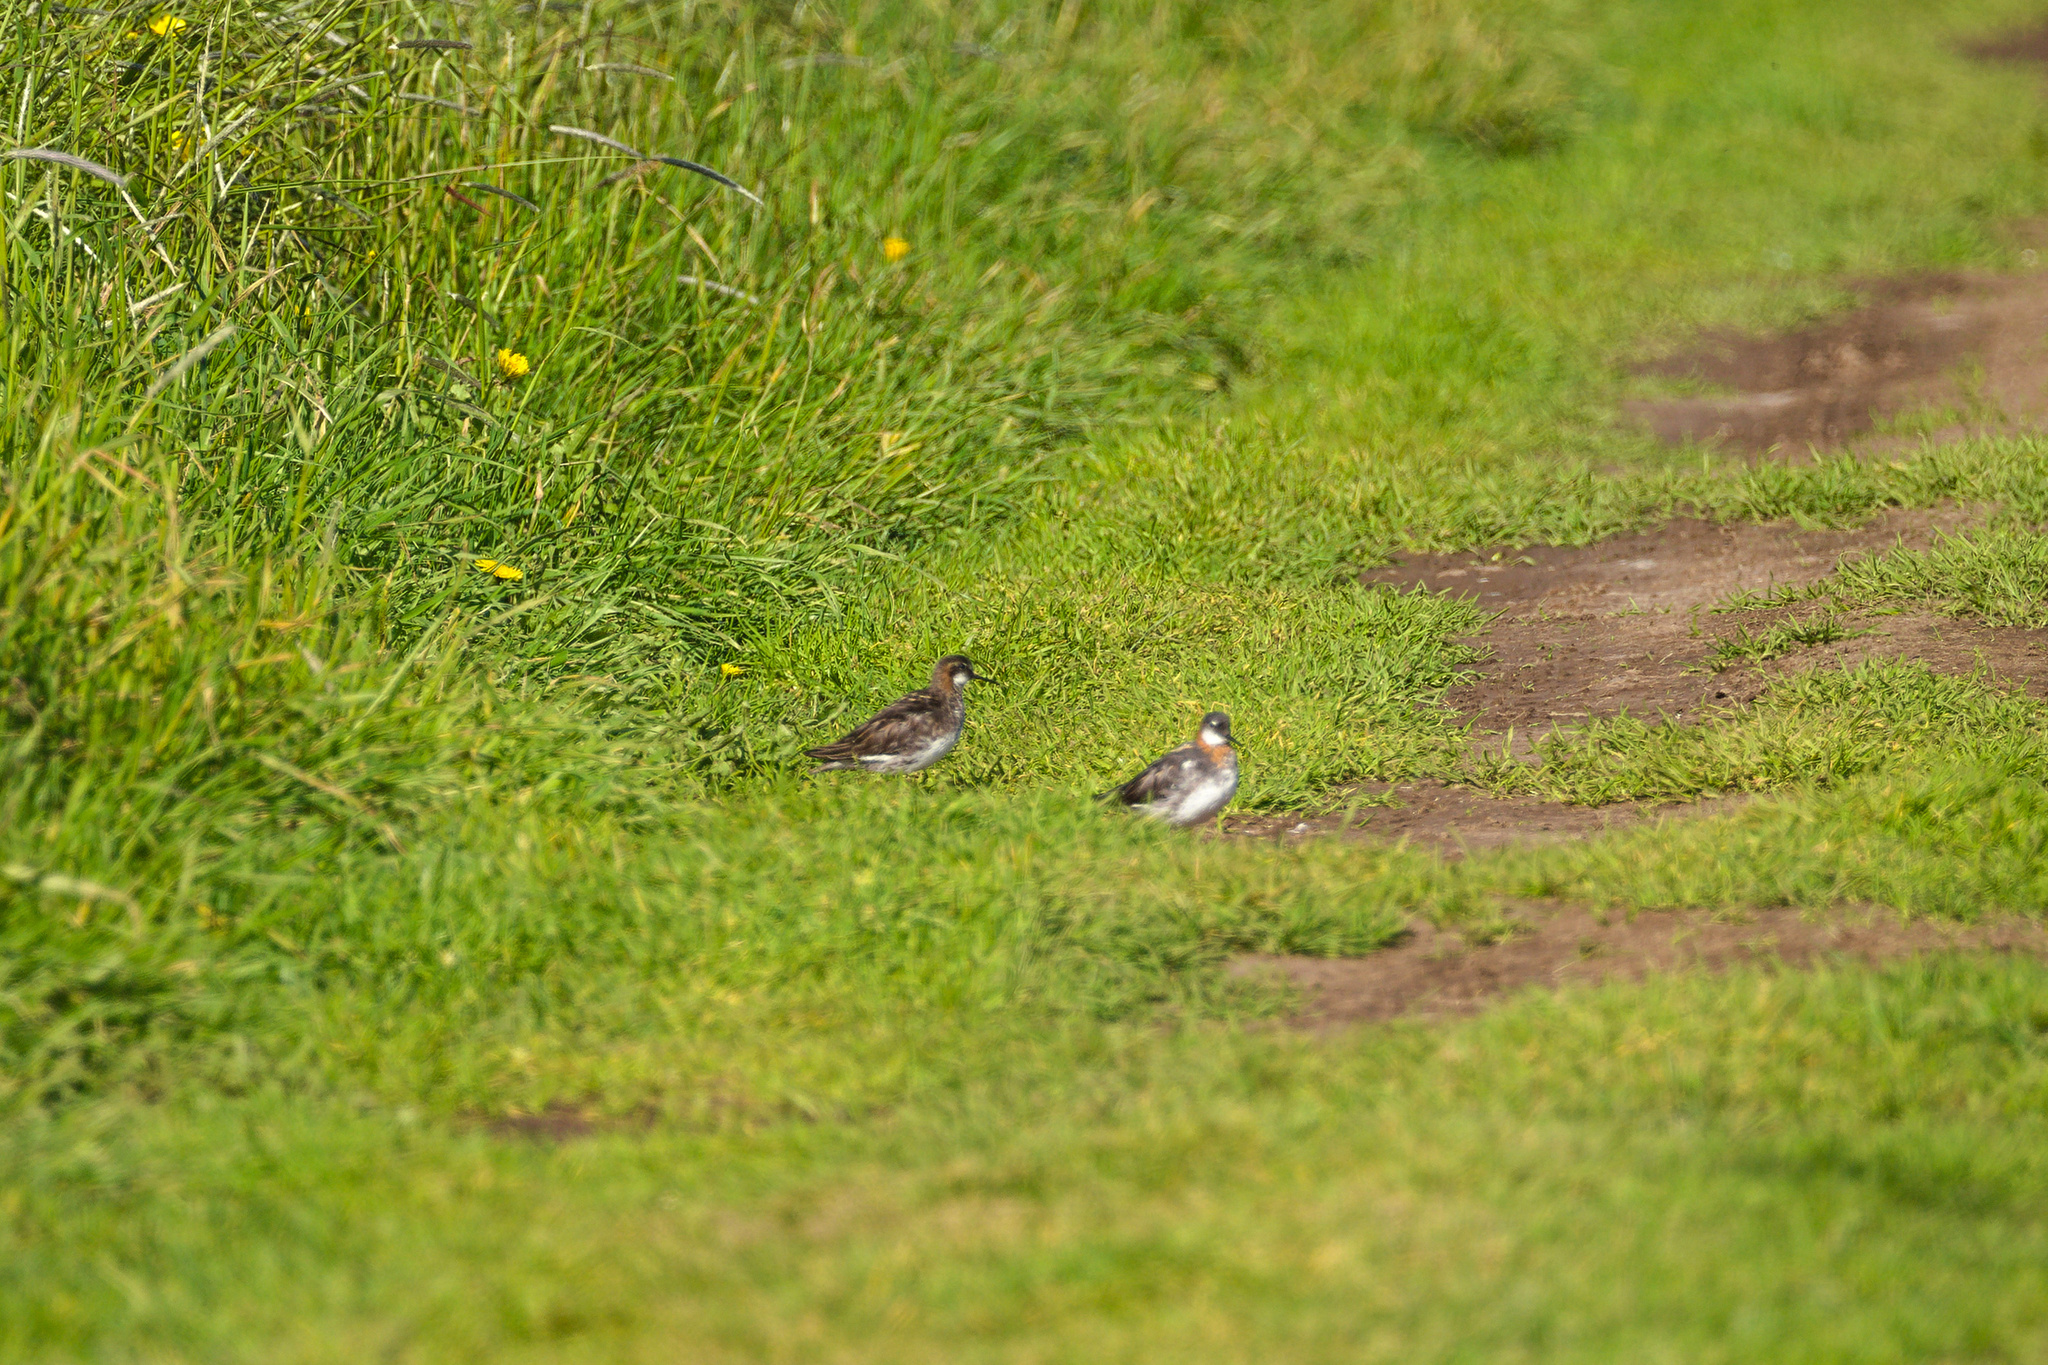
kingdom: Animalia
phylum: Chordata
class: Aves
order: Charadriiformes
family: Scolopacidae
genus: Phalaropus
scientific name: Phalaropus lobatus
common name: Red-necked phalarope
